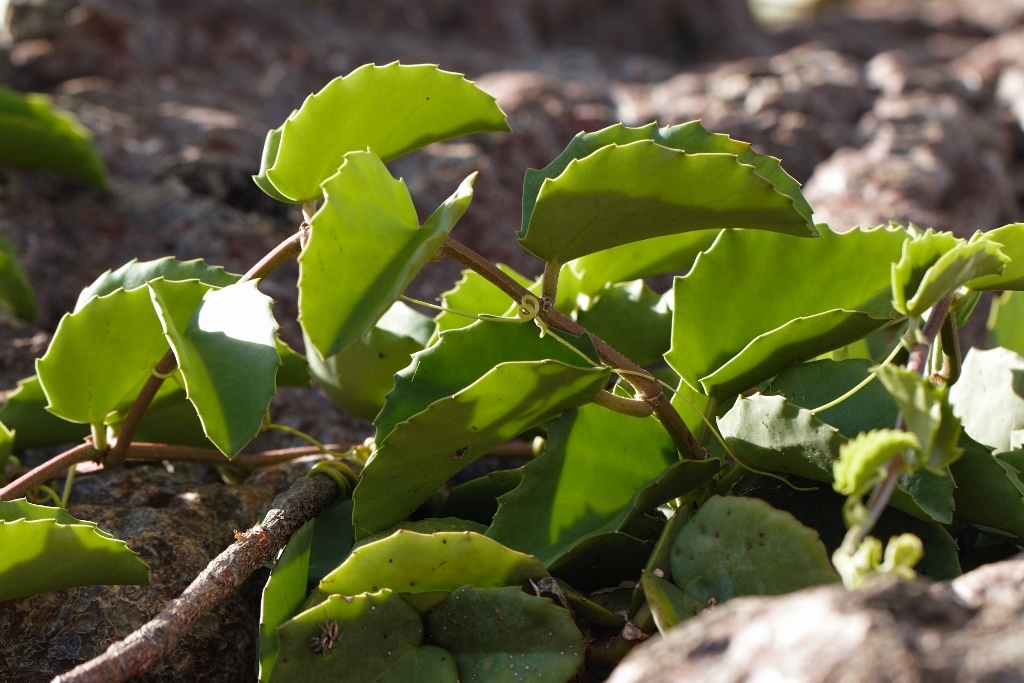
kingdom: Plantae
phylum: Tracheophyta
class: Magnoliopsida
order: Vitales
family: Vitaceae
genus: Cissus
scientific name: Cissus rotundifolia
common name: Arabian wax cissus
